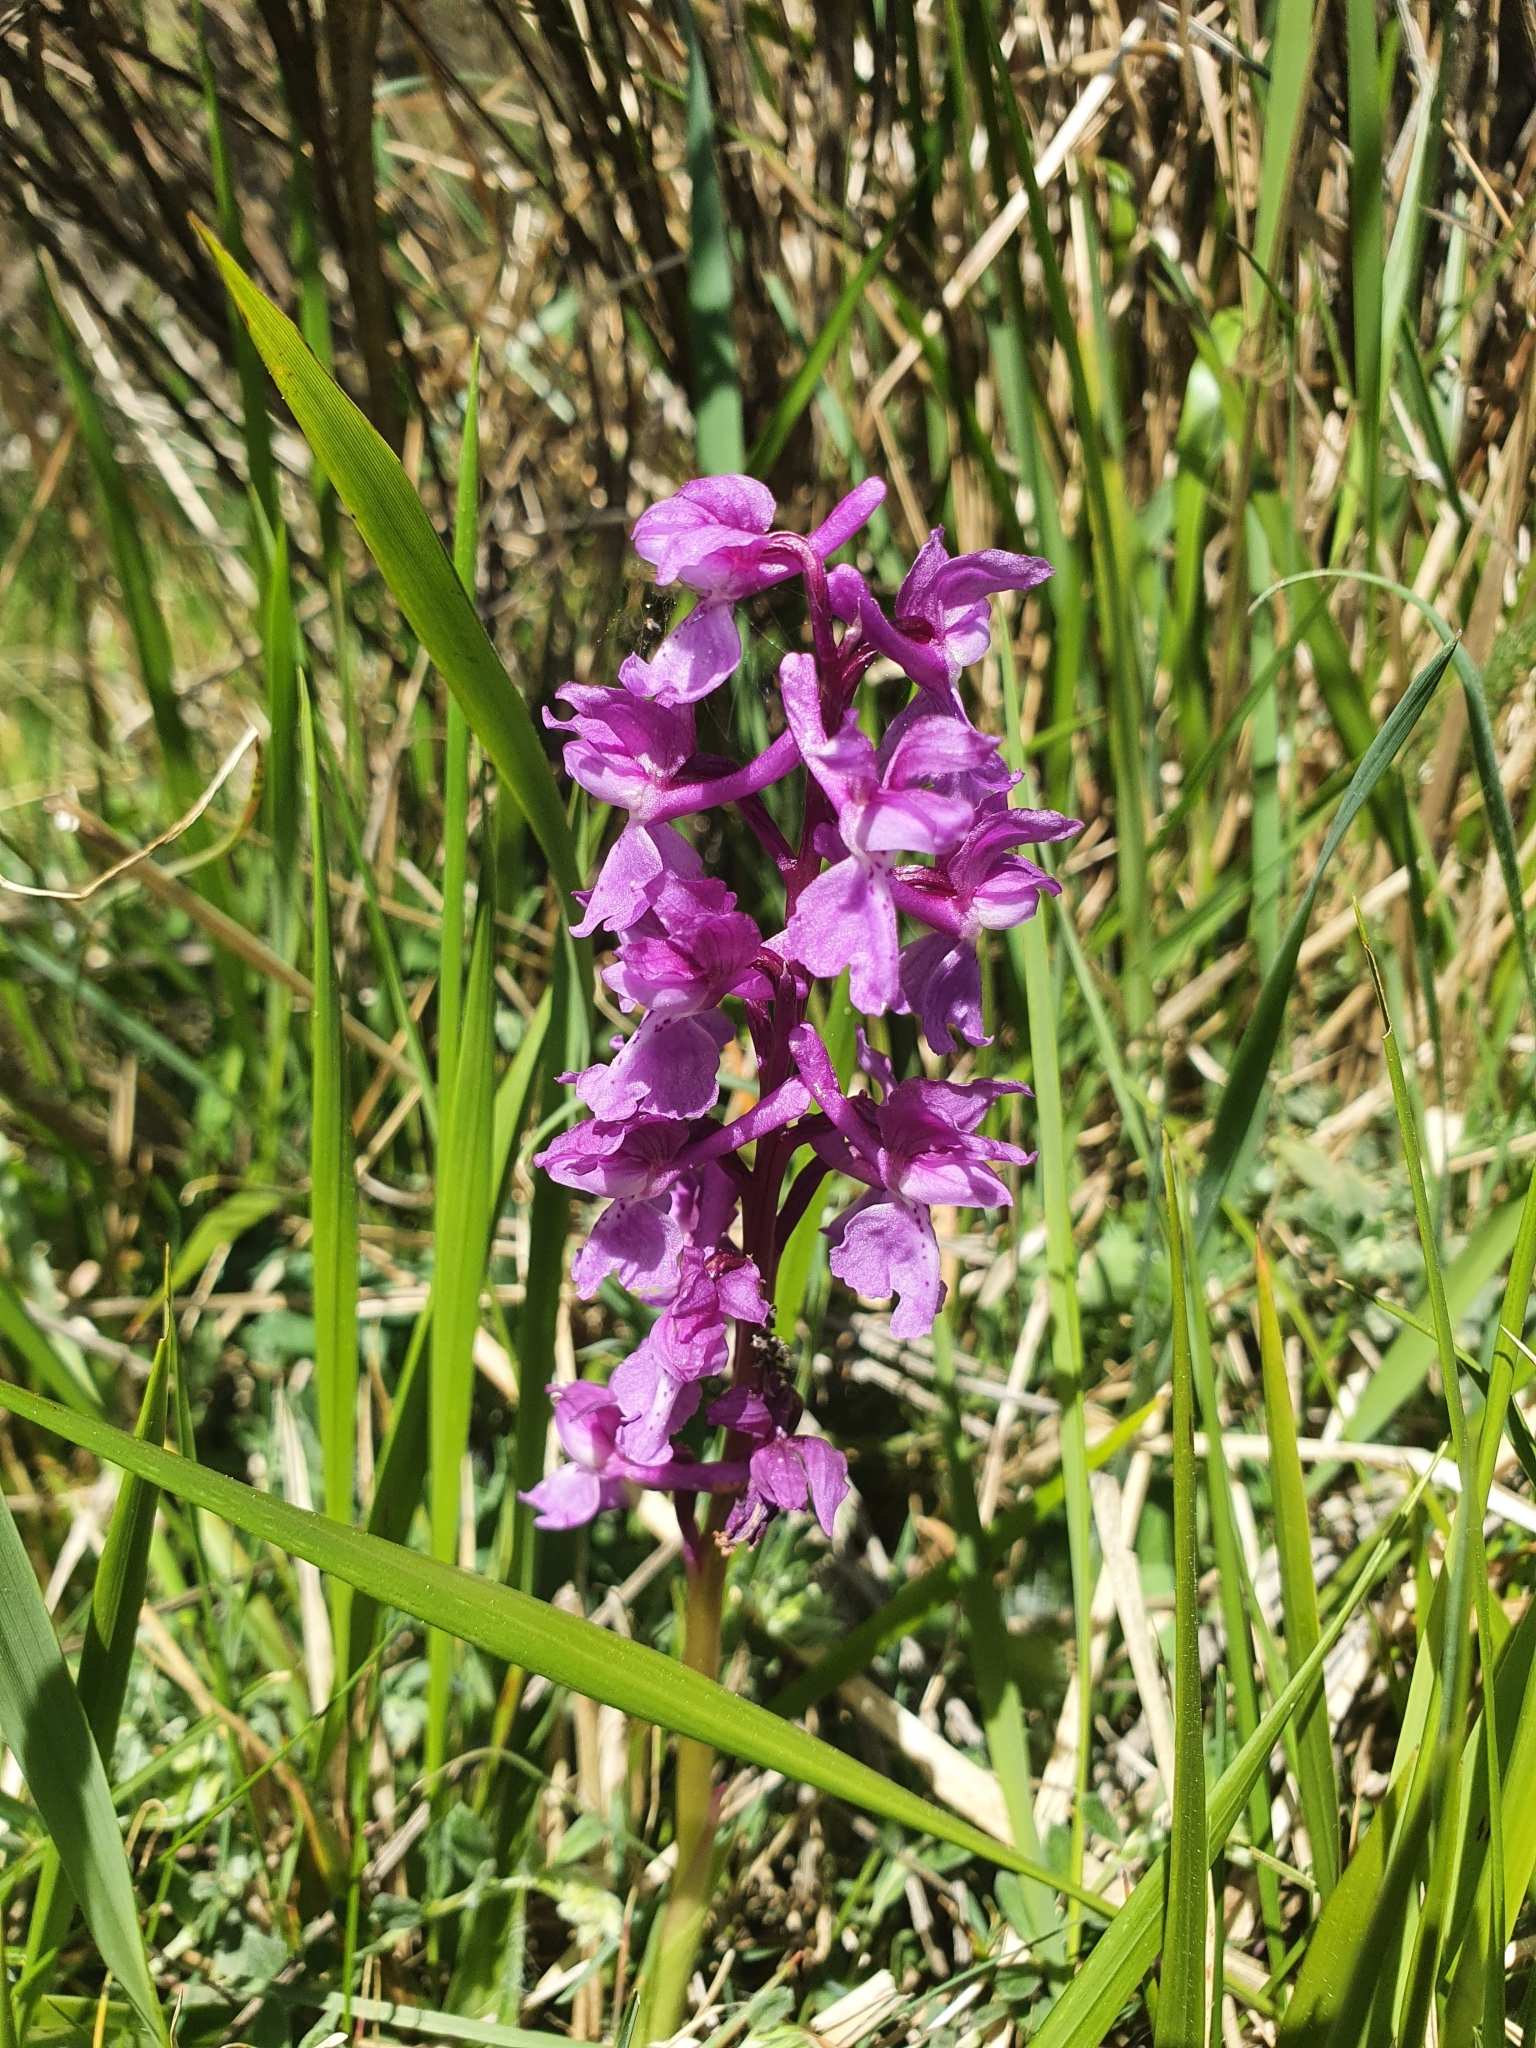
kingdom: Plantae
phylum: Tracheophyta
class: Liliopsida
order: Asparagales
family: Orchidaceae
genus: Orchis
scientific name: Orchis mascula
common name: Early-purple orchid
